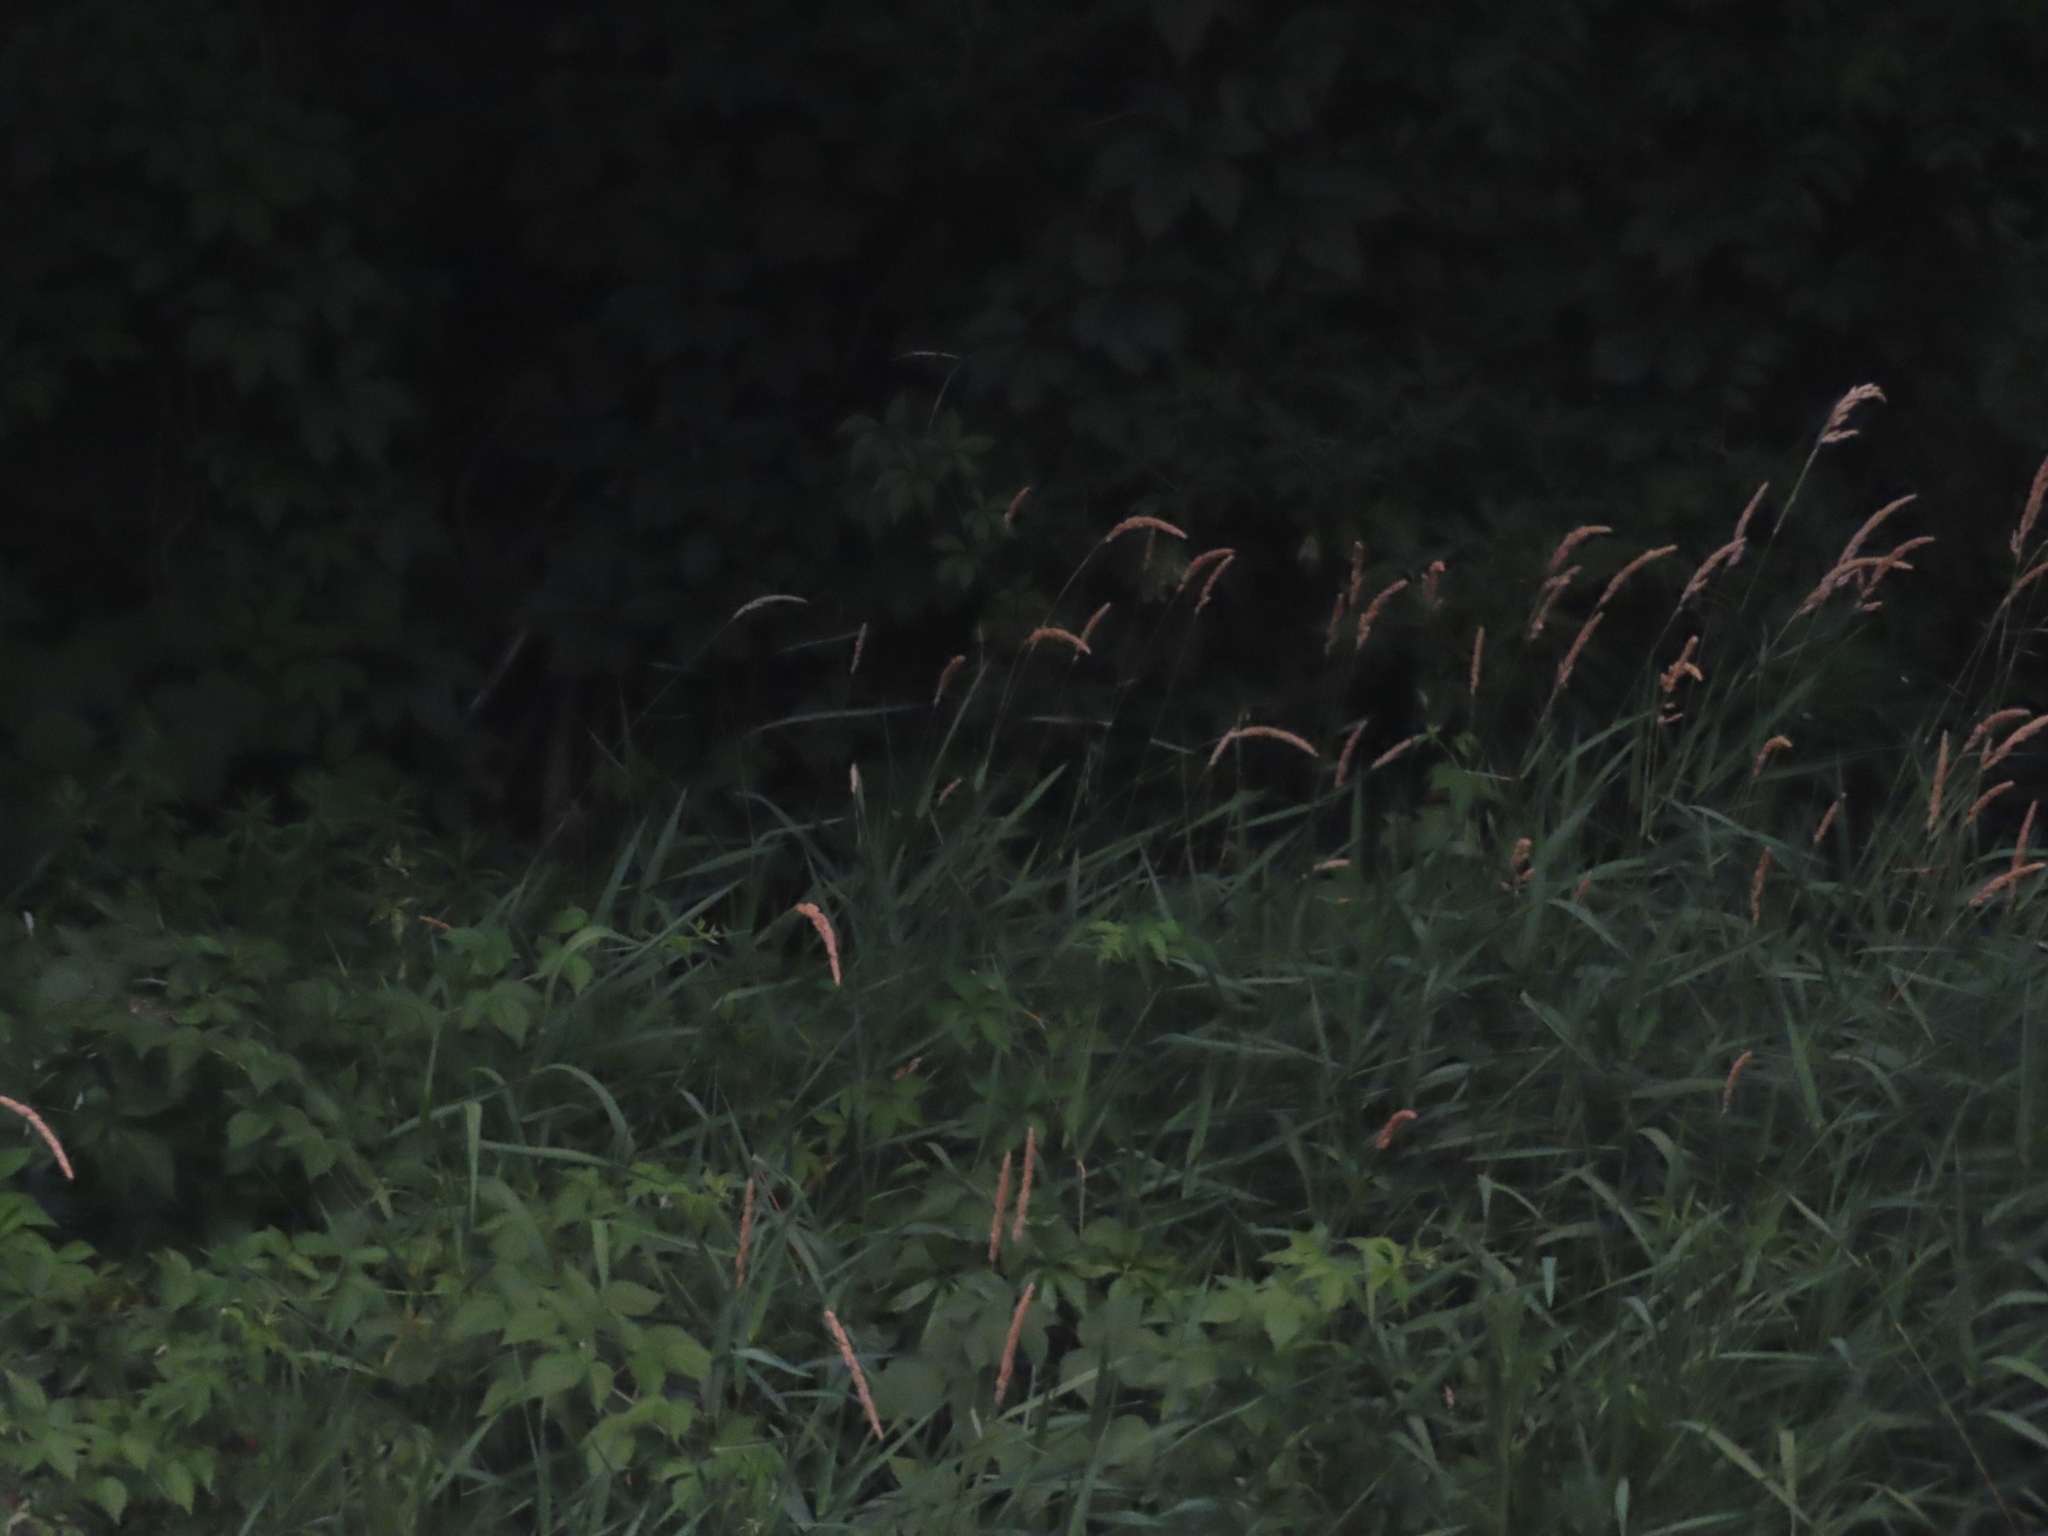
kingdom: Plantae
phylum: Tracheophyta
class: Liliopsida
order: Poales
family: Poaceae
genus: Phalaris
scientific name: Phalaris arundinacea
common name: Reed canary-grass
